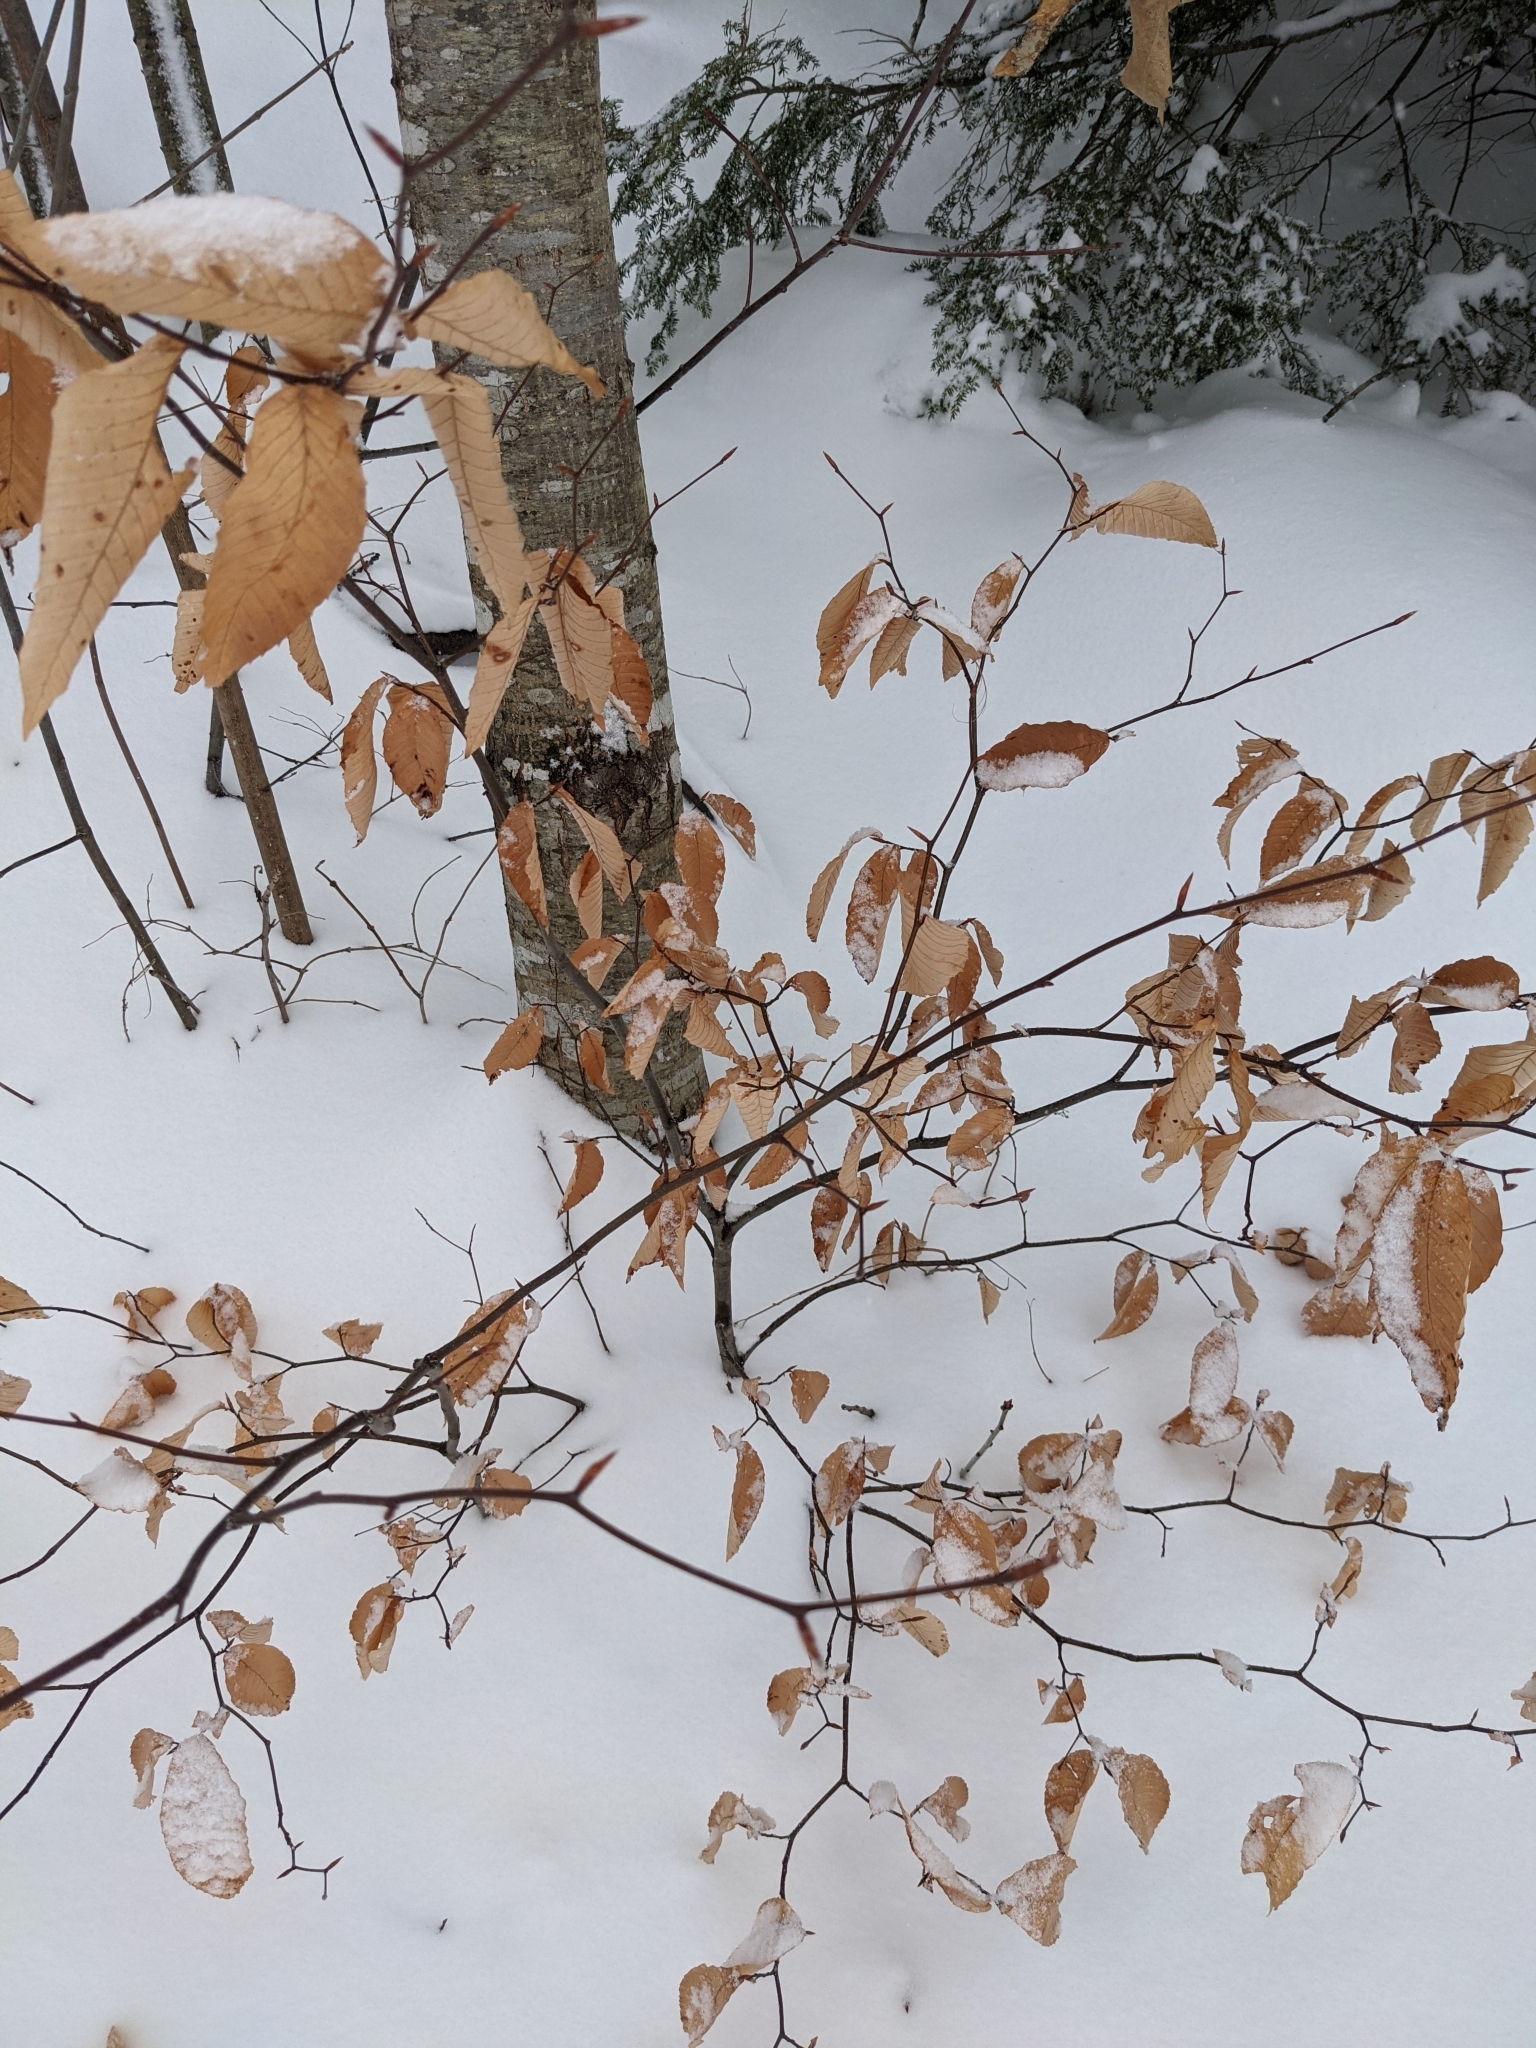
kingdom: Plantae
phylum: Tracheophyta
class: Magnoliopsida
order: Fagales
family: Fagaceae
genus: Fagus
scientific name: Fagus grandifolia
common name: American beech
